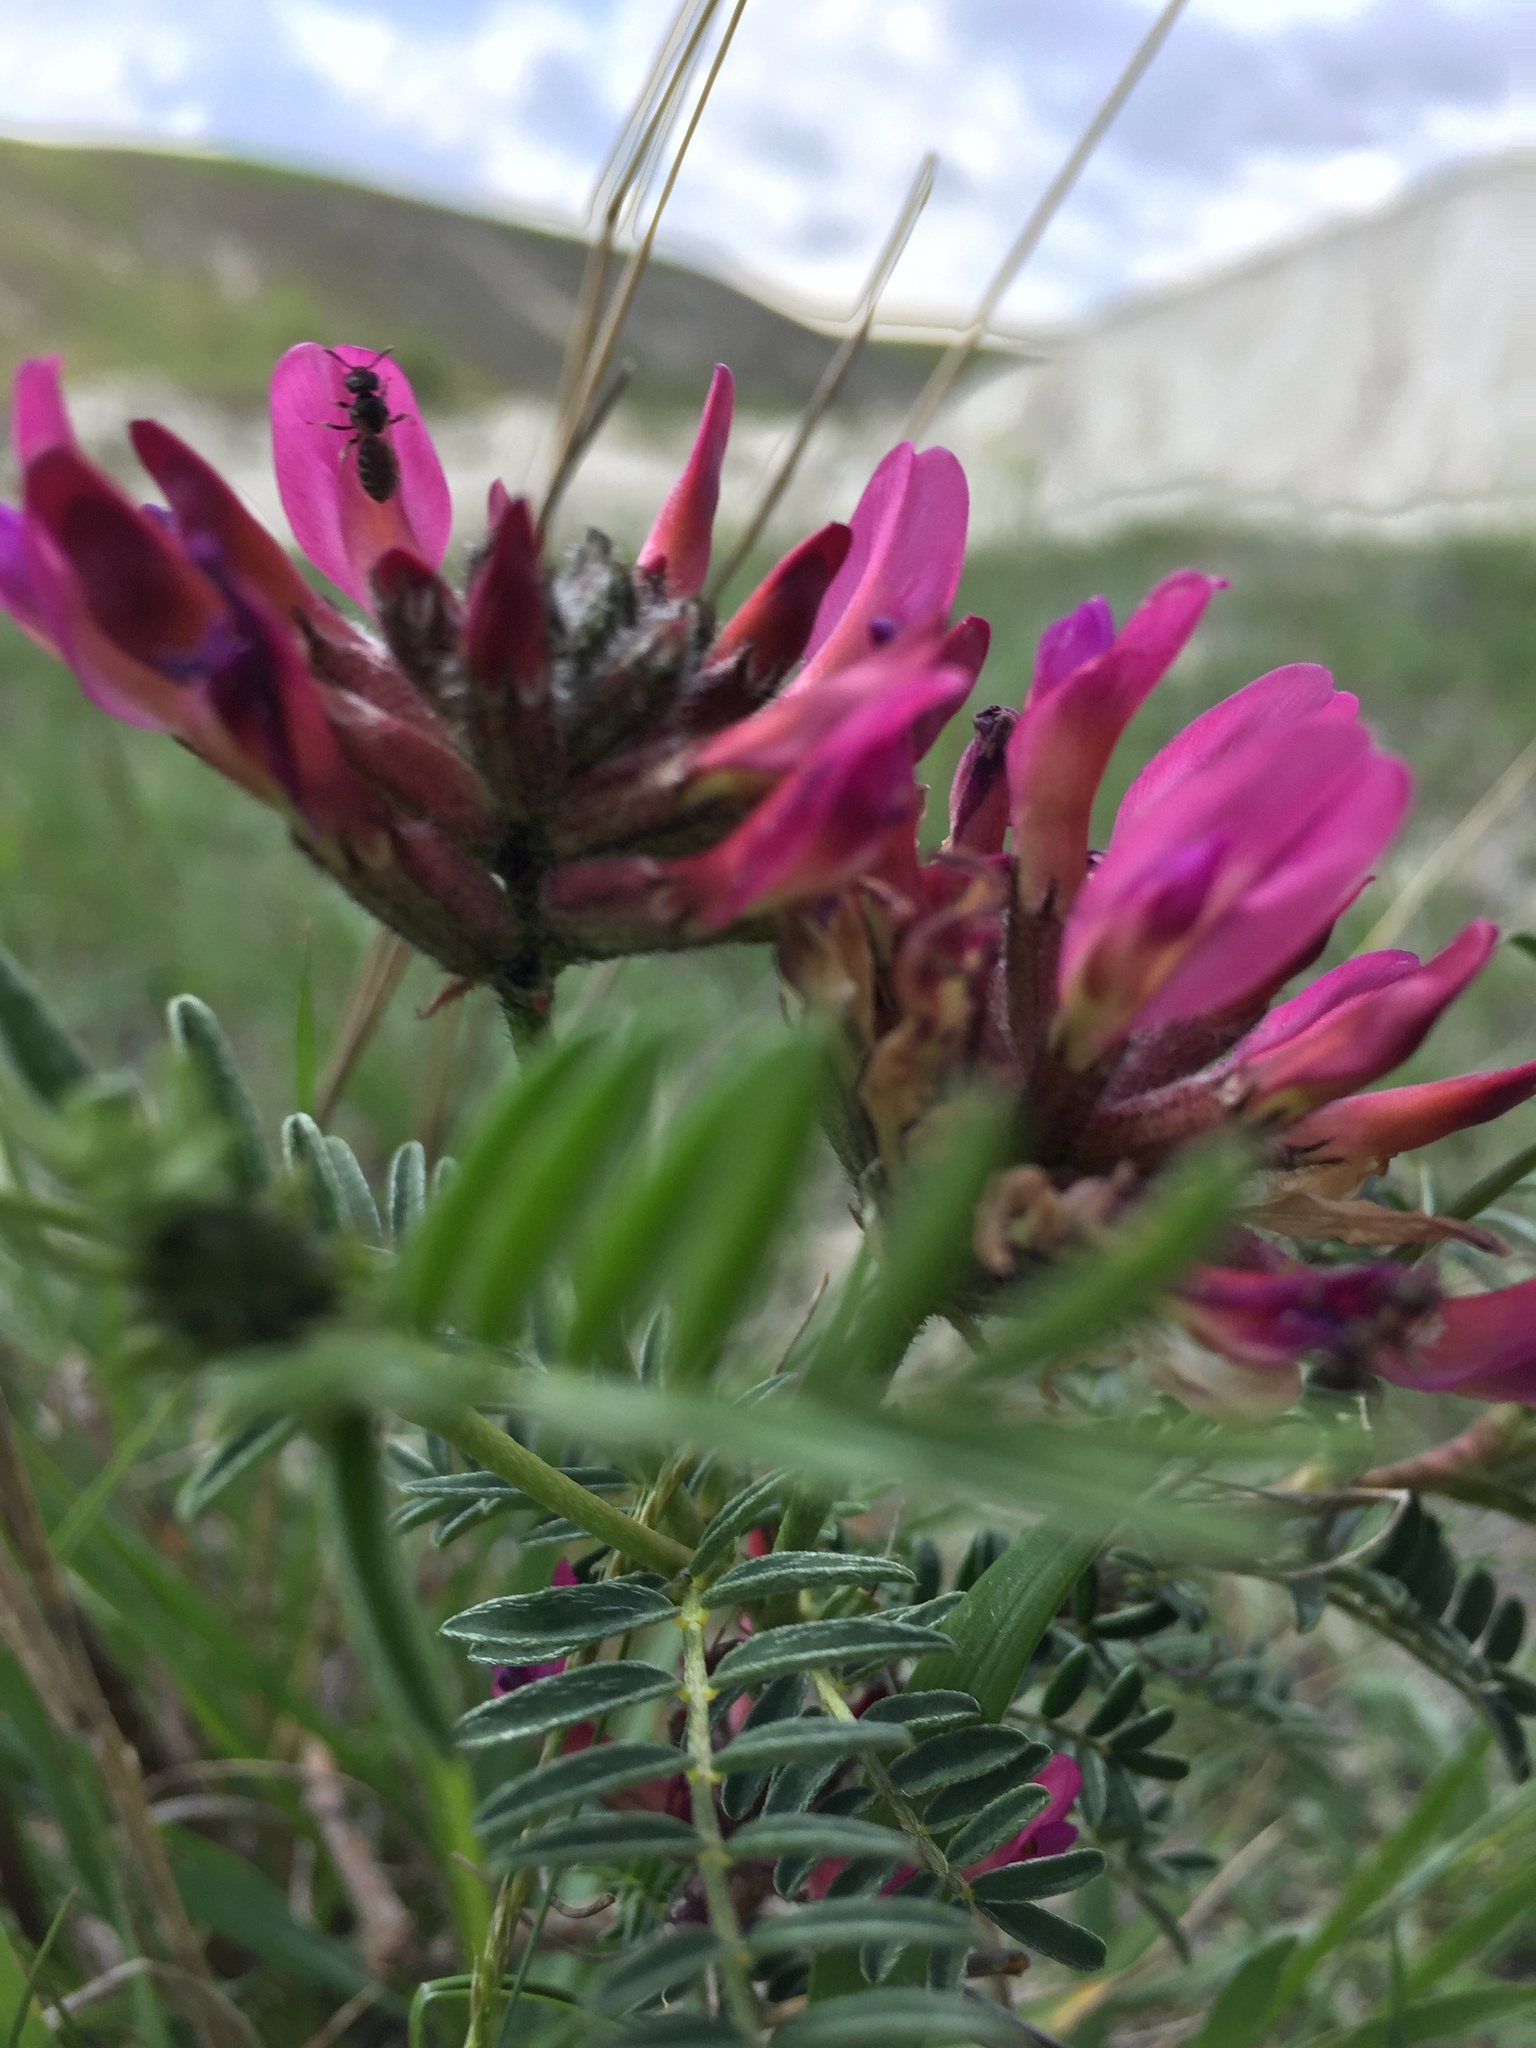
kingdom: Plantae
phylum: Tracheophyta
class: Magnoliopsida
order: Fabales
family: Fabaceae
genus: Astragalus
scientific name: Astragalus cornutus
